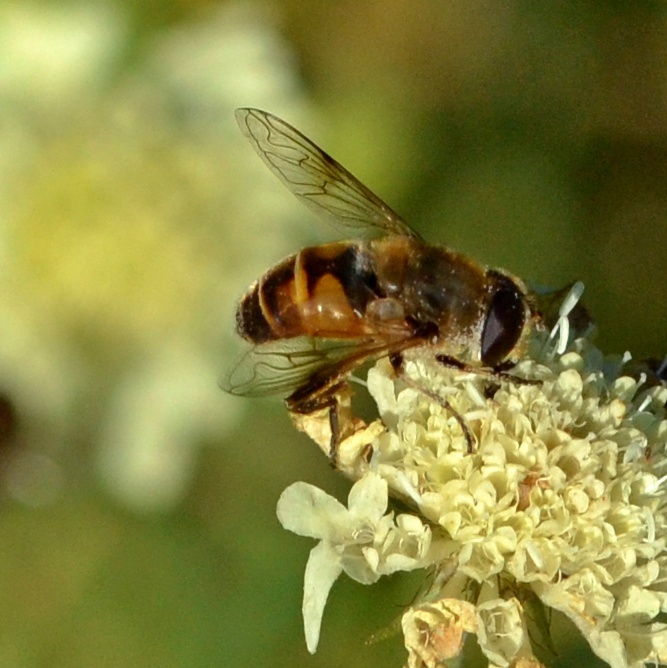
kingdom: Animalia
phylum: Arthropoda
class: Insecta
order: Diptera
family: Syrphidae
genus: Eristalis
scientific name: Eristalis tenax
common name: Drone fly
